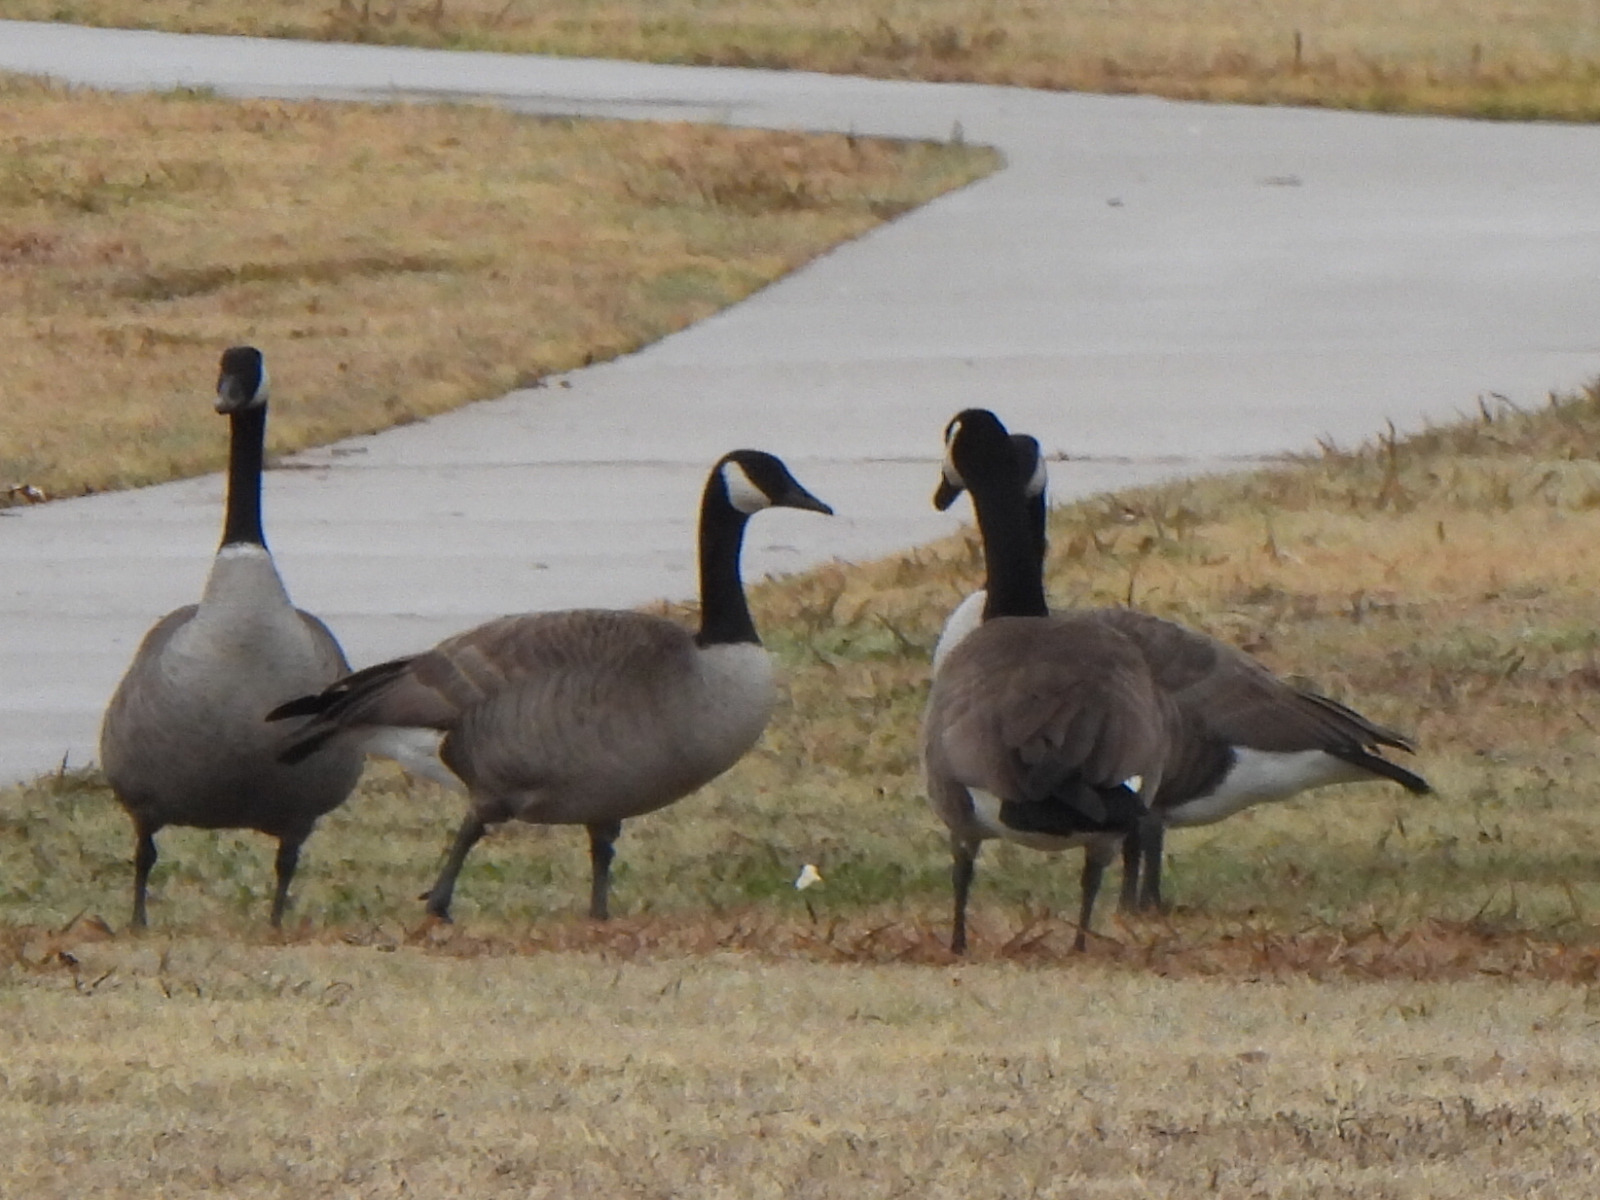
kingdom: Animalia
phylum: Chordata
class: Aves
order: Anseriformes
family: Anatidae
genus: Branta
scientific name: Branta canadensis
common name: Canada goose
